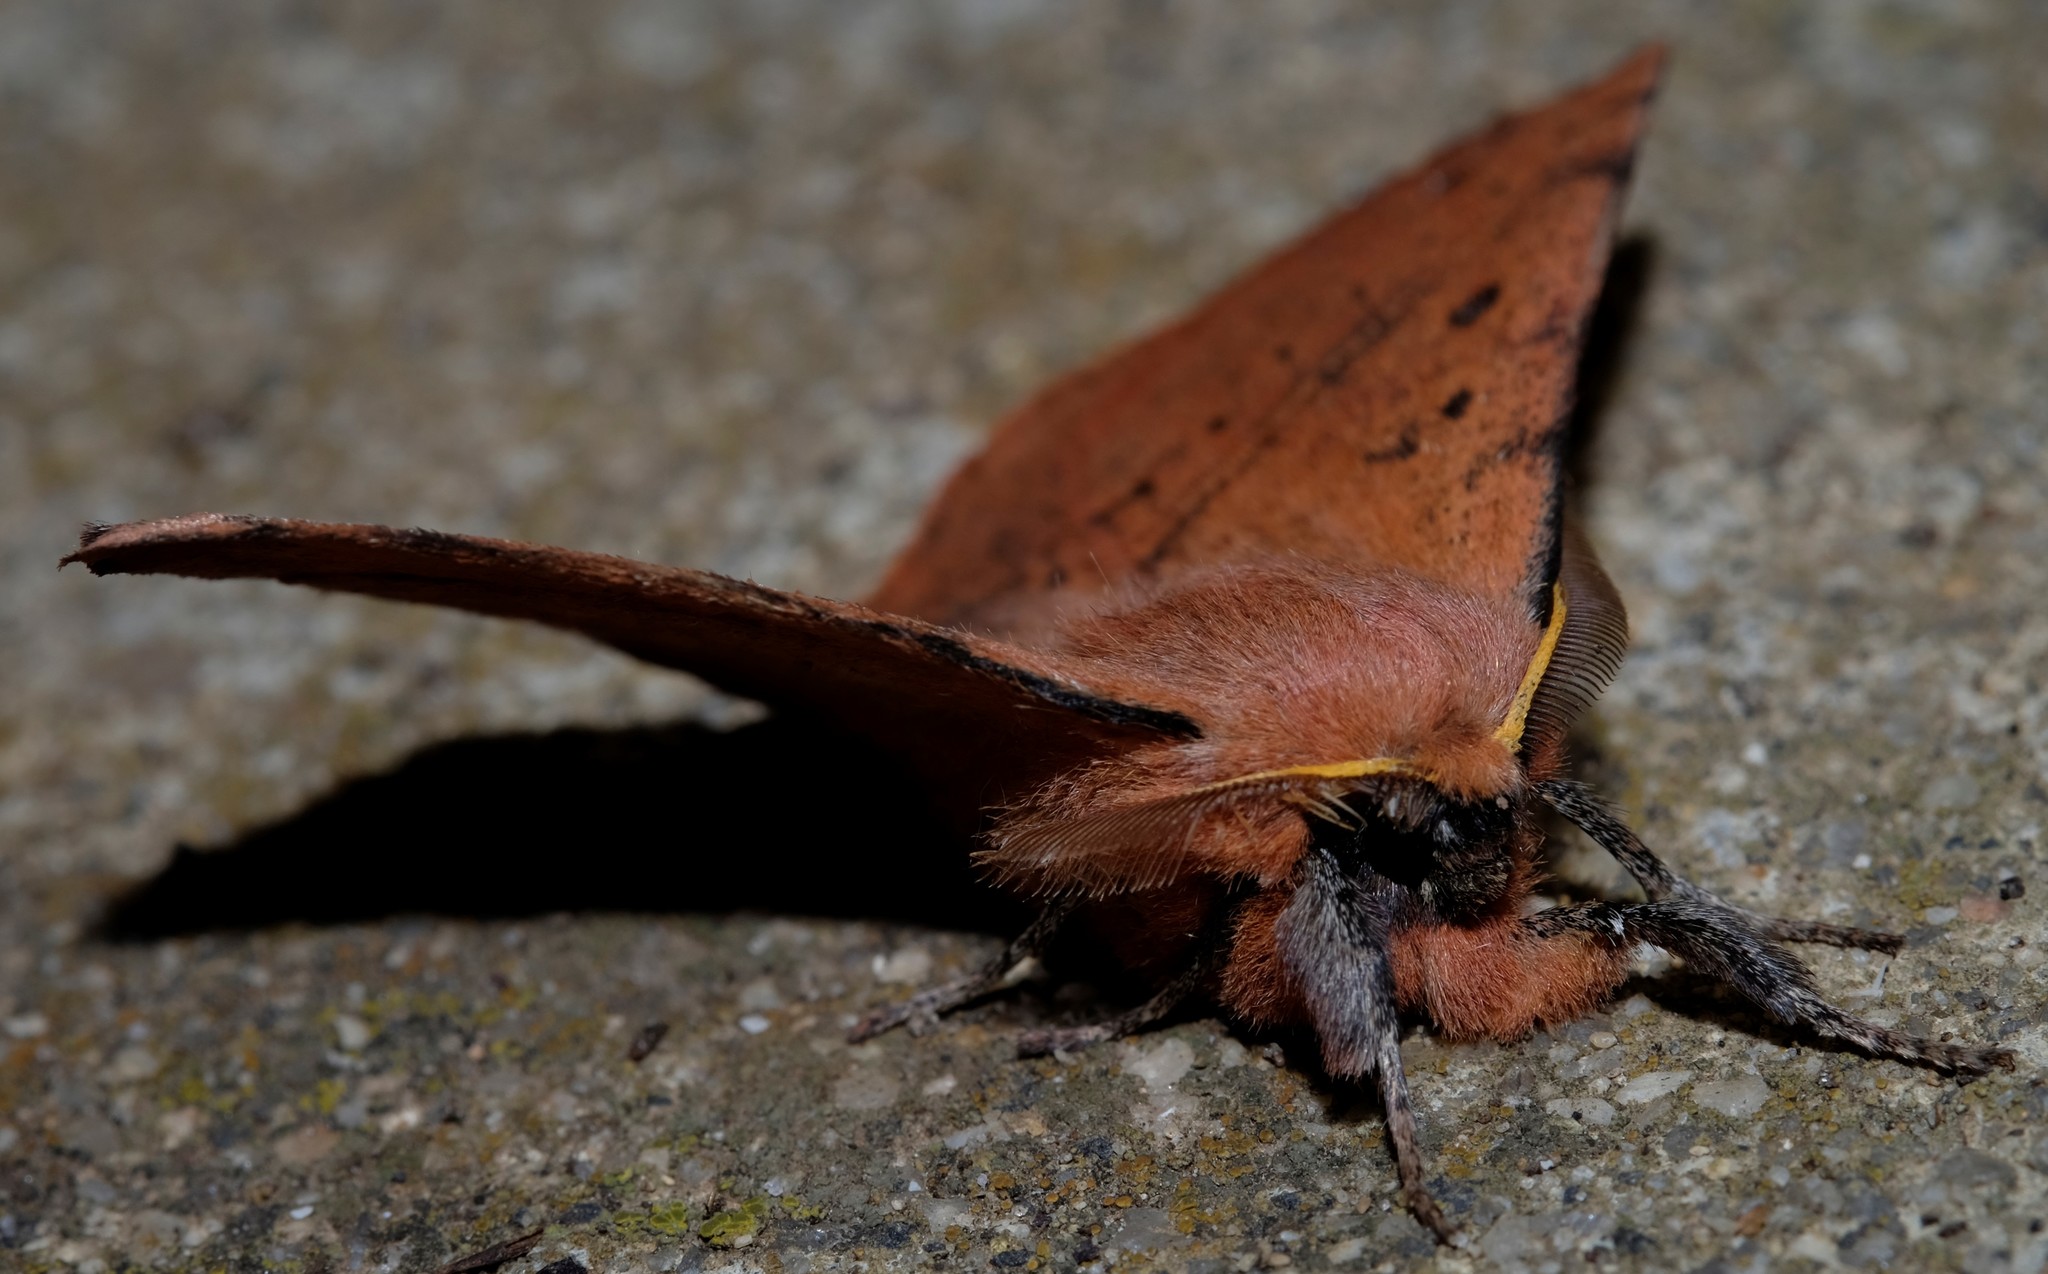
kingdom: Animalia
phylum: Arthropoda
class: Insecta
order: Lepidoptera
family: Anthelidae
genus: Anthela
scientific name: Anthela acuta
